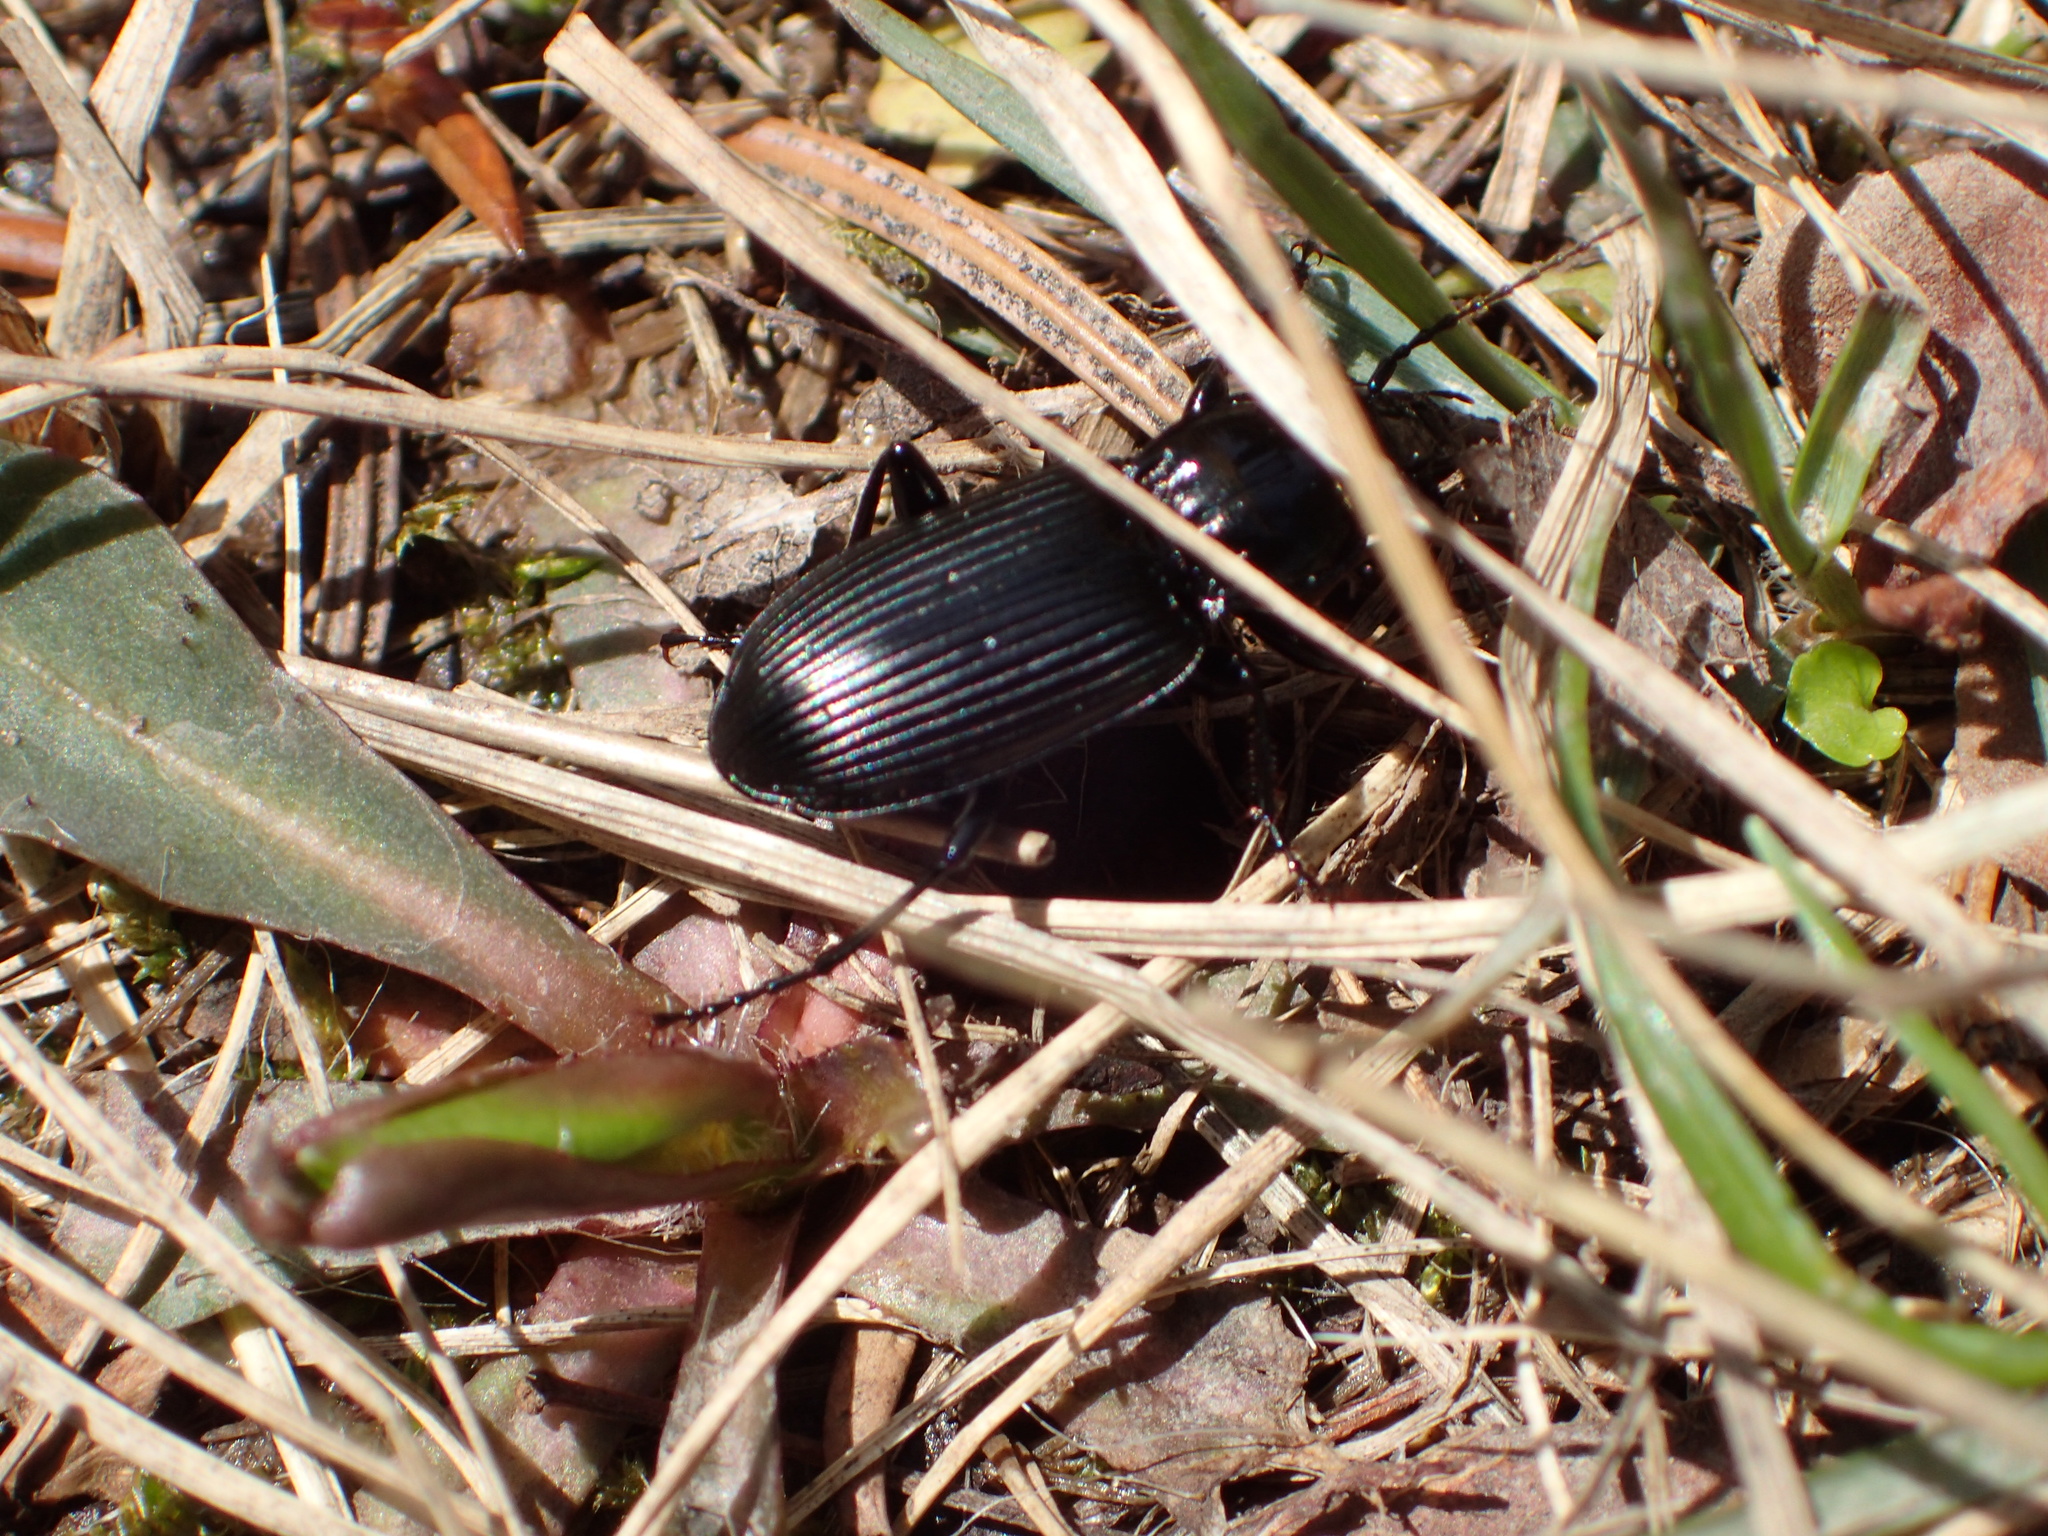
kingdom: Animalia
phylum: Arthropoda
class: Insecta
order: Coleoptera
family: Carabidae
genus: Pterostichus
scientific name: Pterostichus melanarius
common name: European dark harp ground beetle
